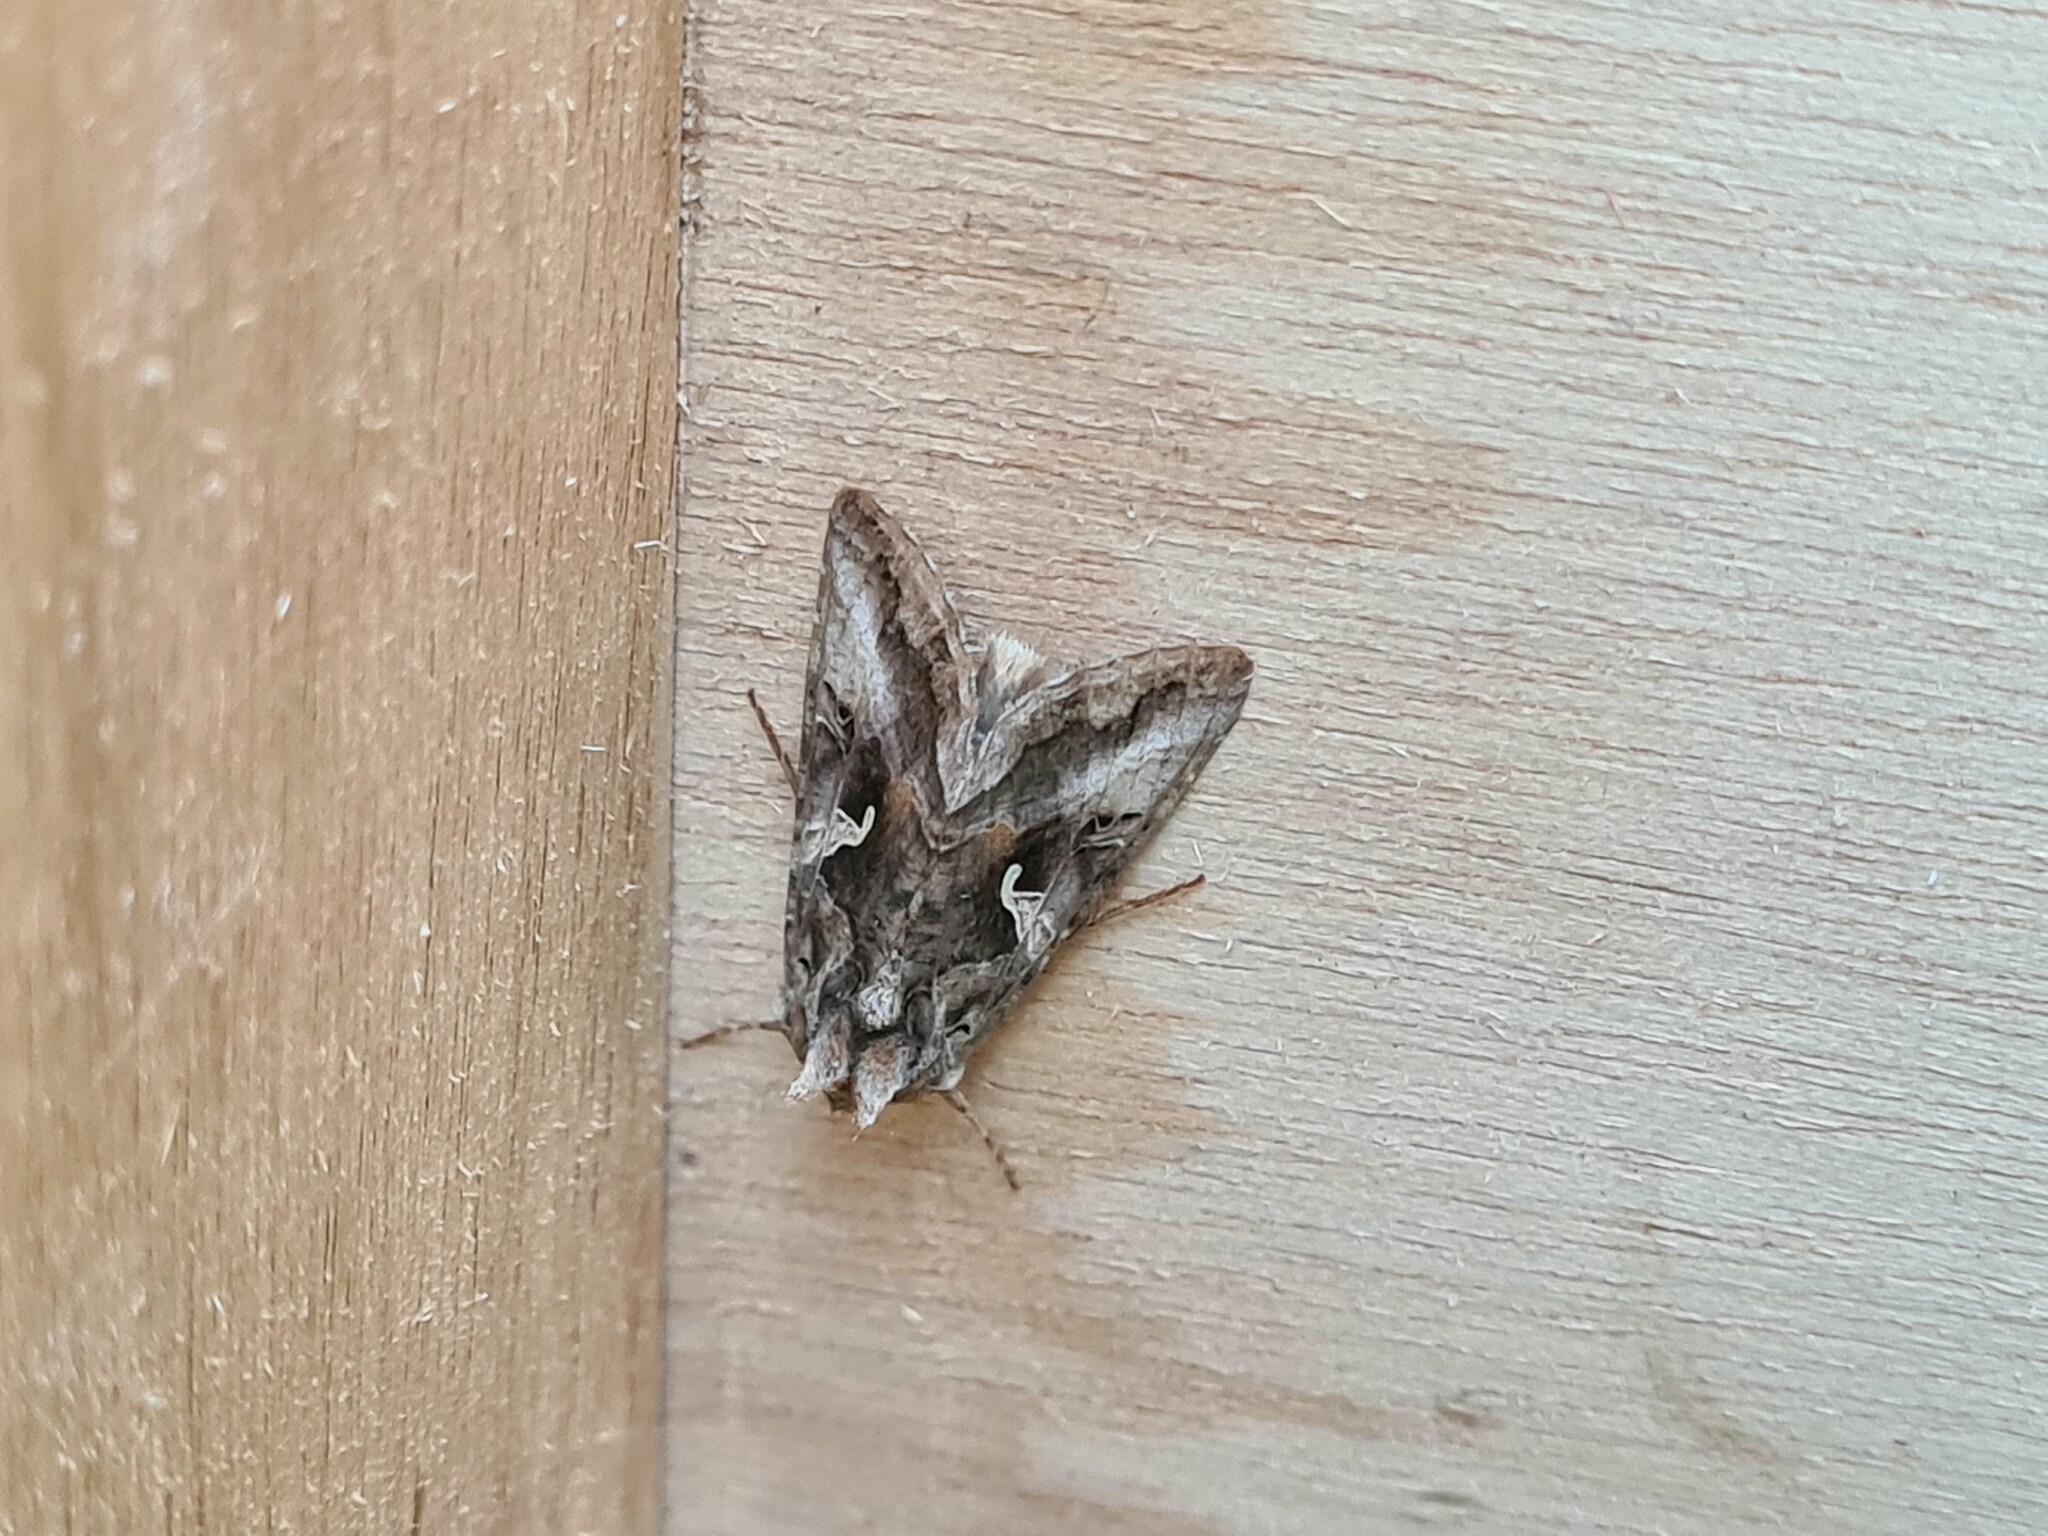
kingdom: Animalia
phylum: Arthropoda
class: Insecta
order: Lepidoptera
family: Noctuidae
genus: Autographa
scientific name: Autographa gamma
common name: Silver y
